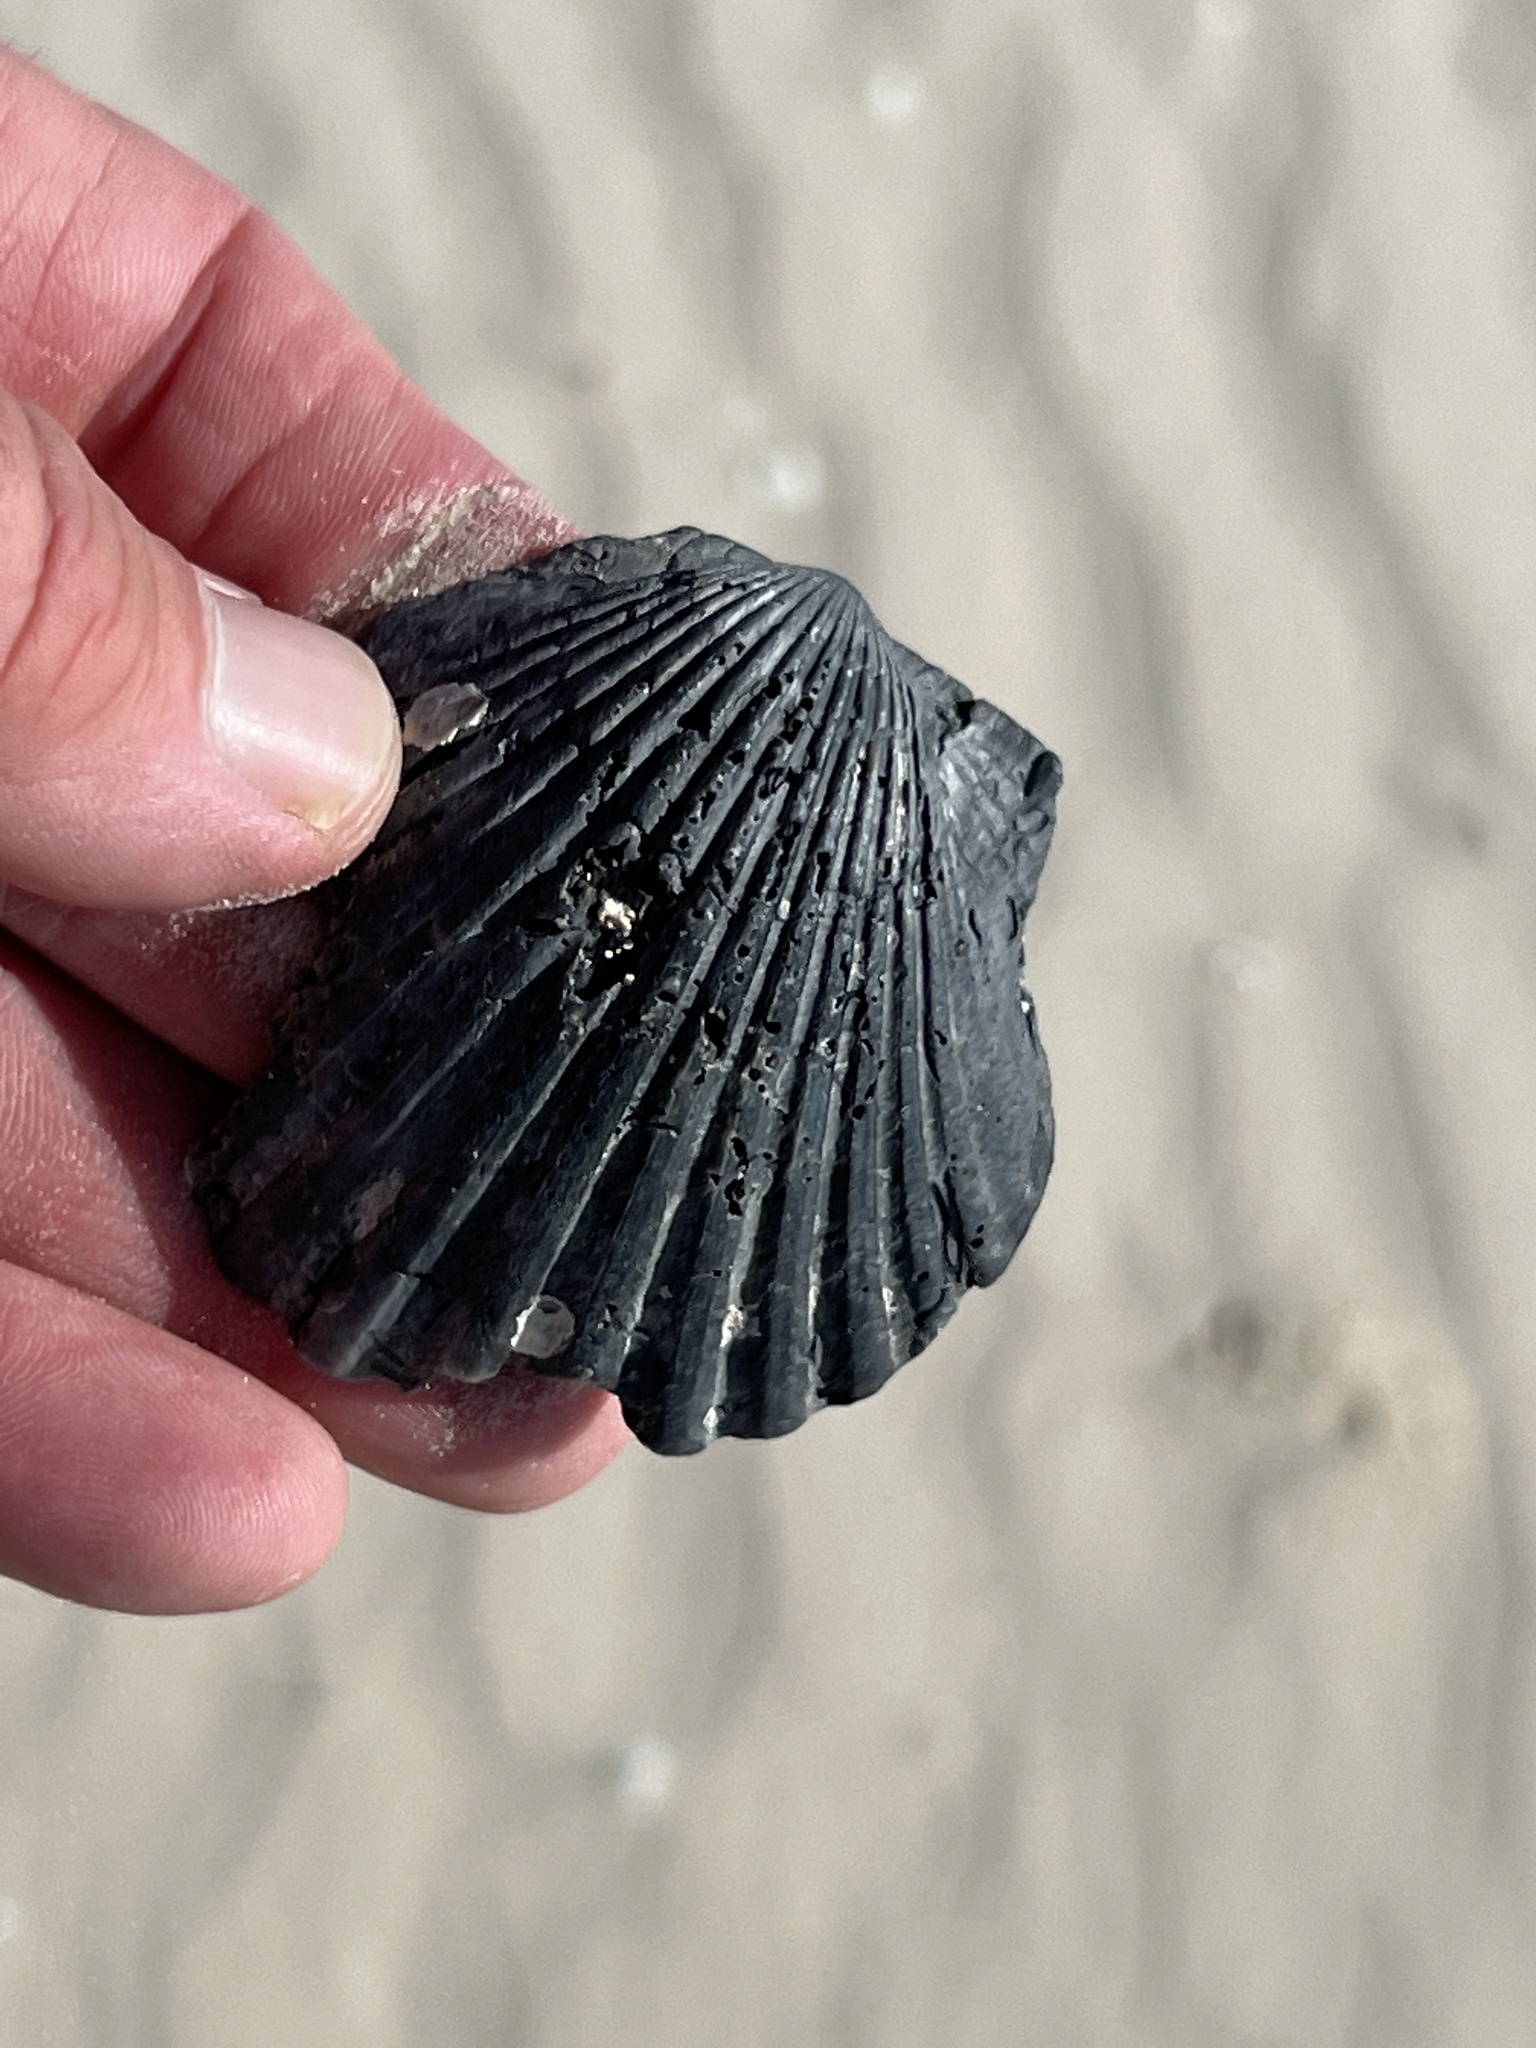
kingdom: Animalia
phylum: Mollusca
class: Bivalvia
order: Pectinida
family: Pectinidae
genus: Argopecten
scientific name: Argopecten irradians
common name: Atlantic bay scallop
